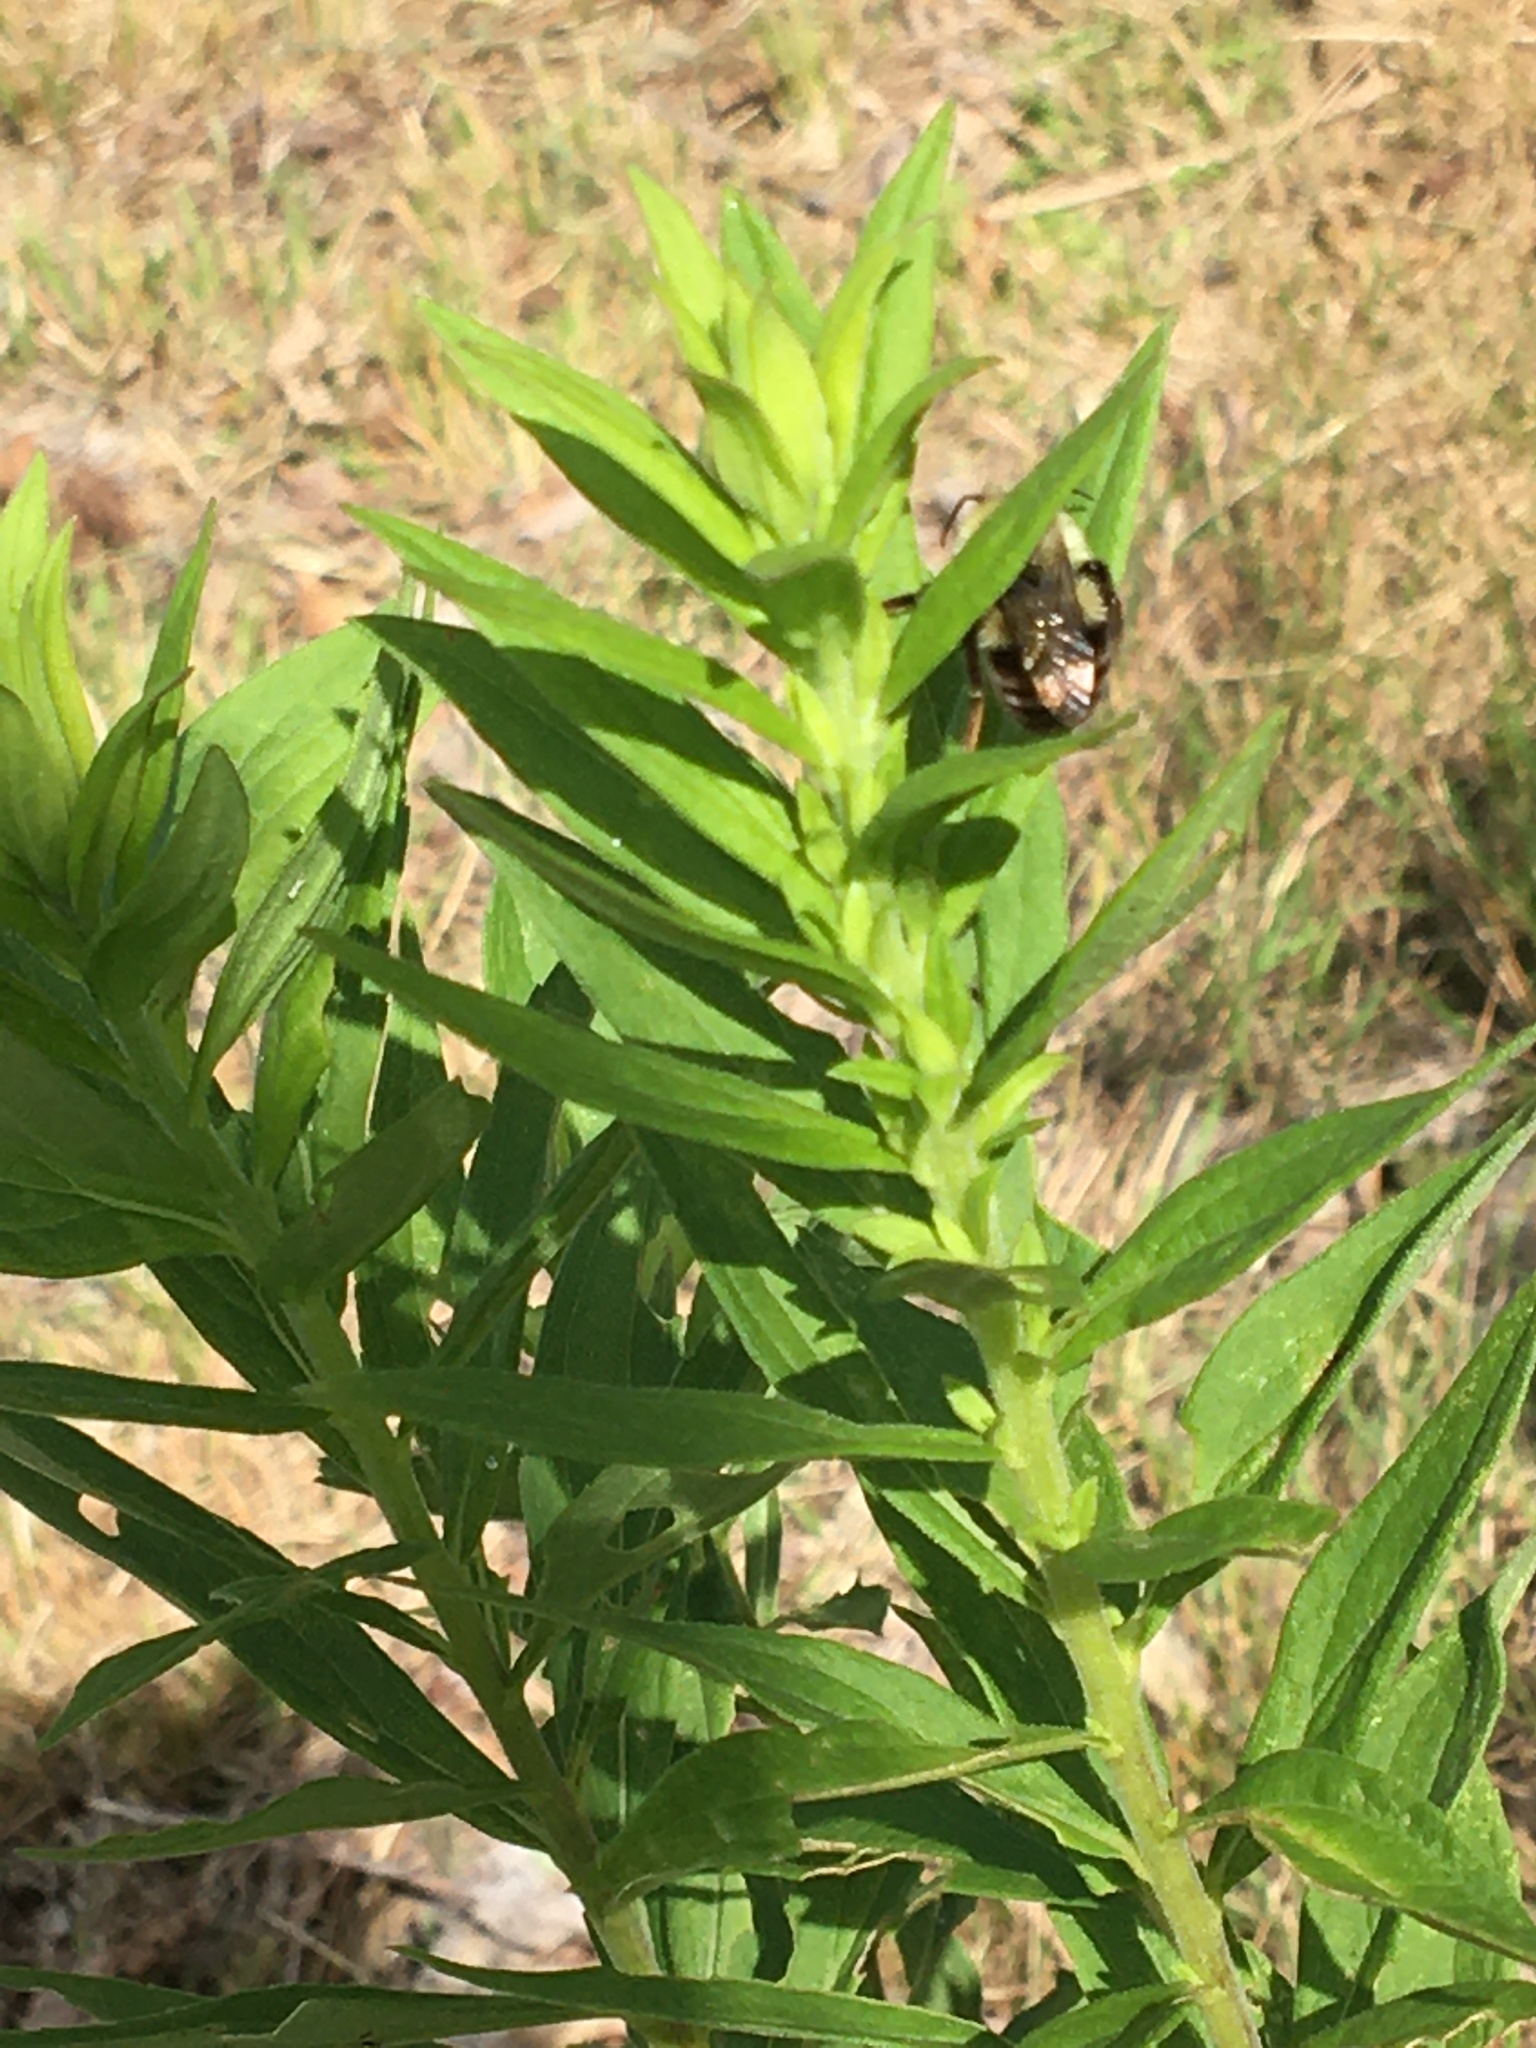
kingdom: Animalia
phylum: Arthropoda
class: Insecta
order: Hymenoptera
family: Apidae
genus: Bombus
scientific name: Bombus impatiens
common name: Common eastern bumble bee
